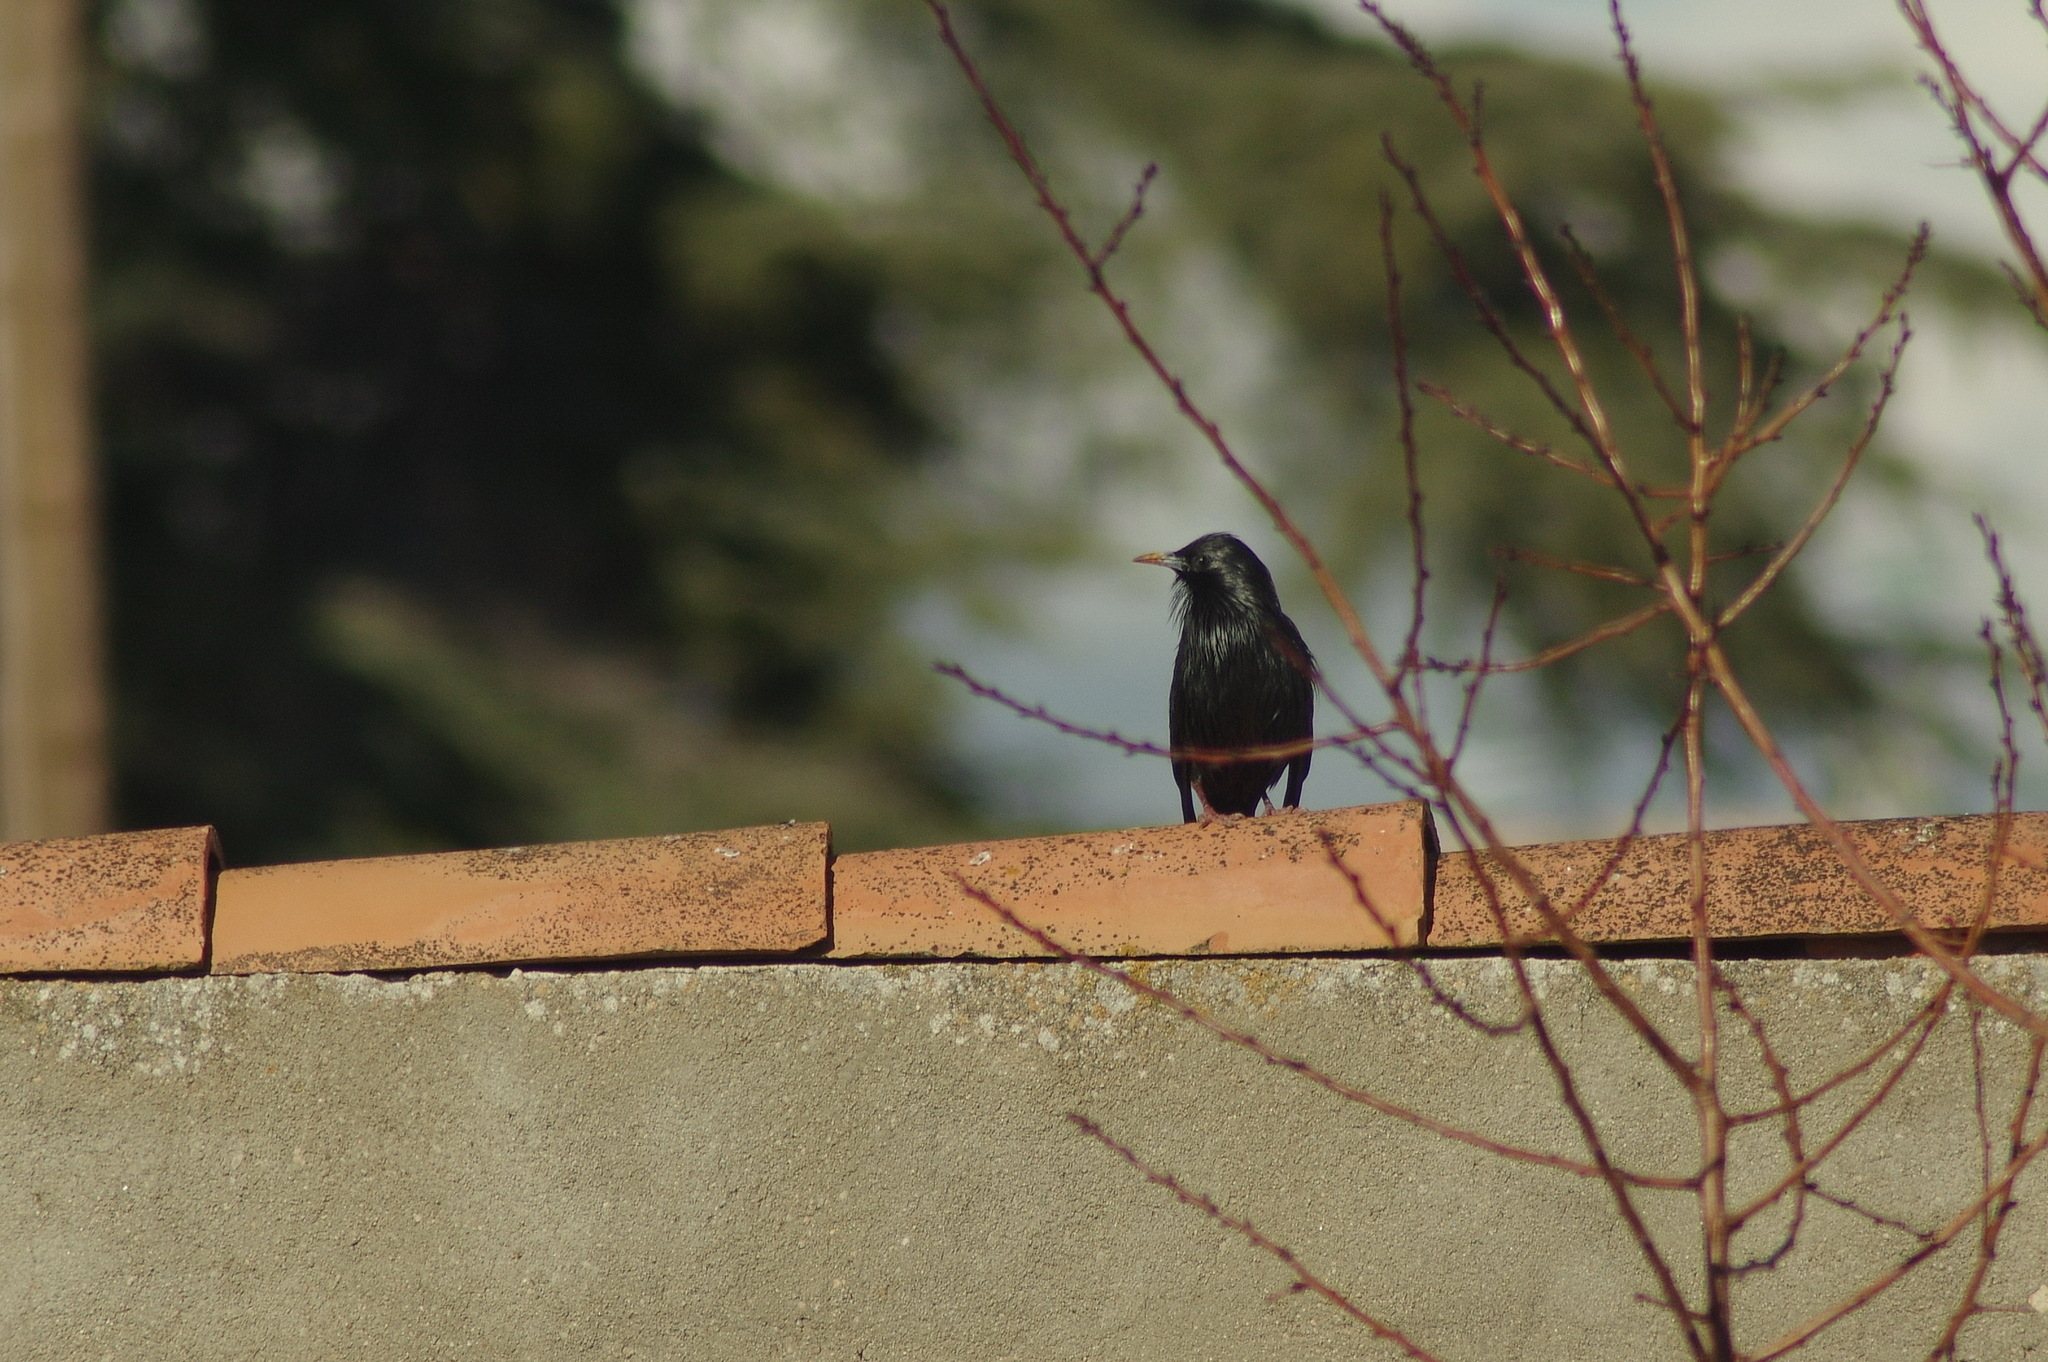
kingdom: Animalia
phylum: Chordata
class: Aves
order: Passeriformes
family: Sturnidae
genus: Sturnus
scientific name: Sturnus unicolor
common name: Spotless starling
